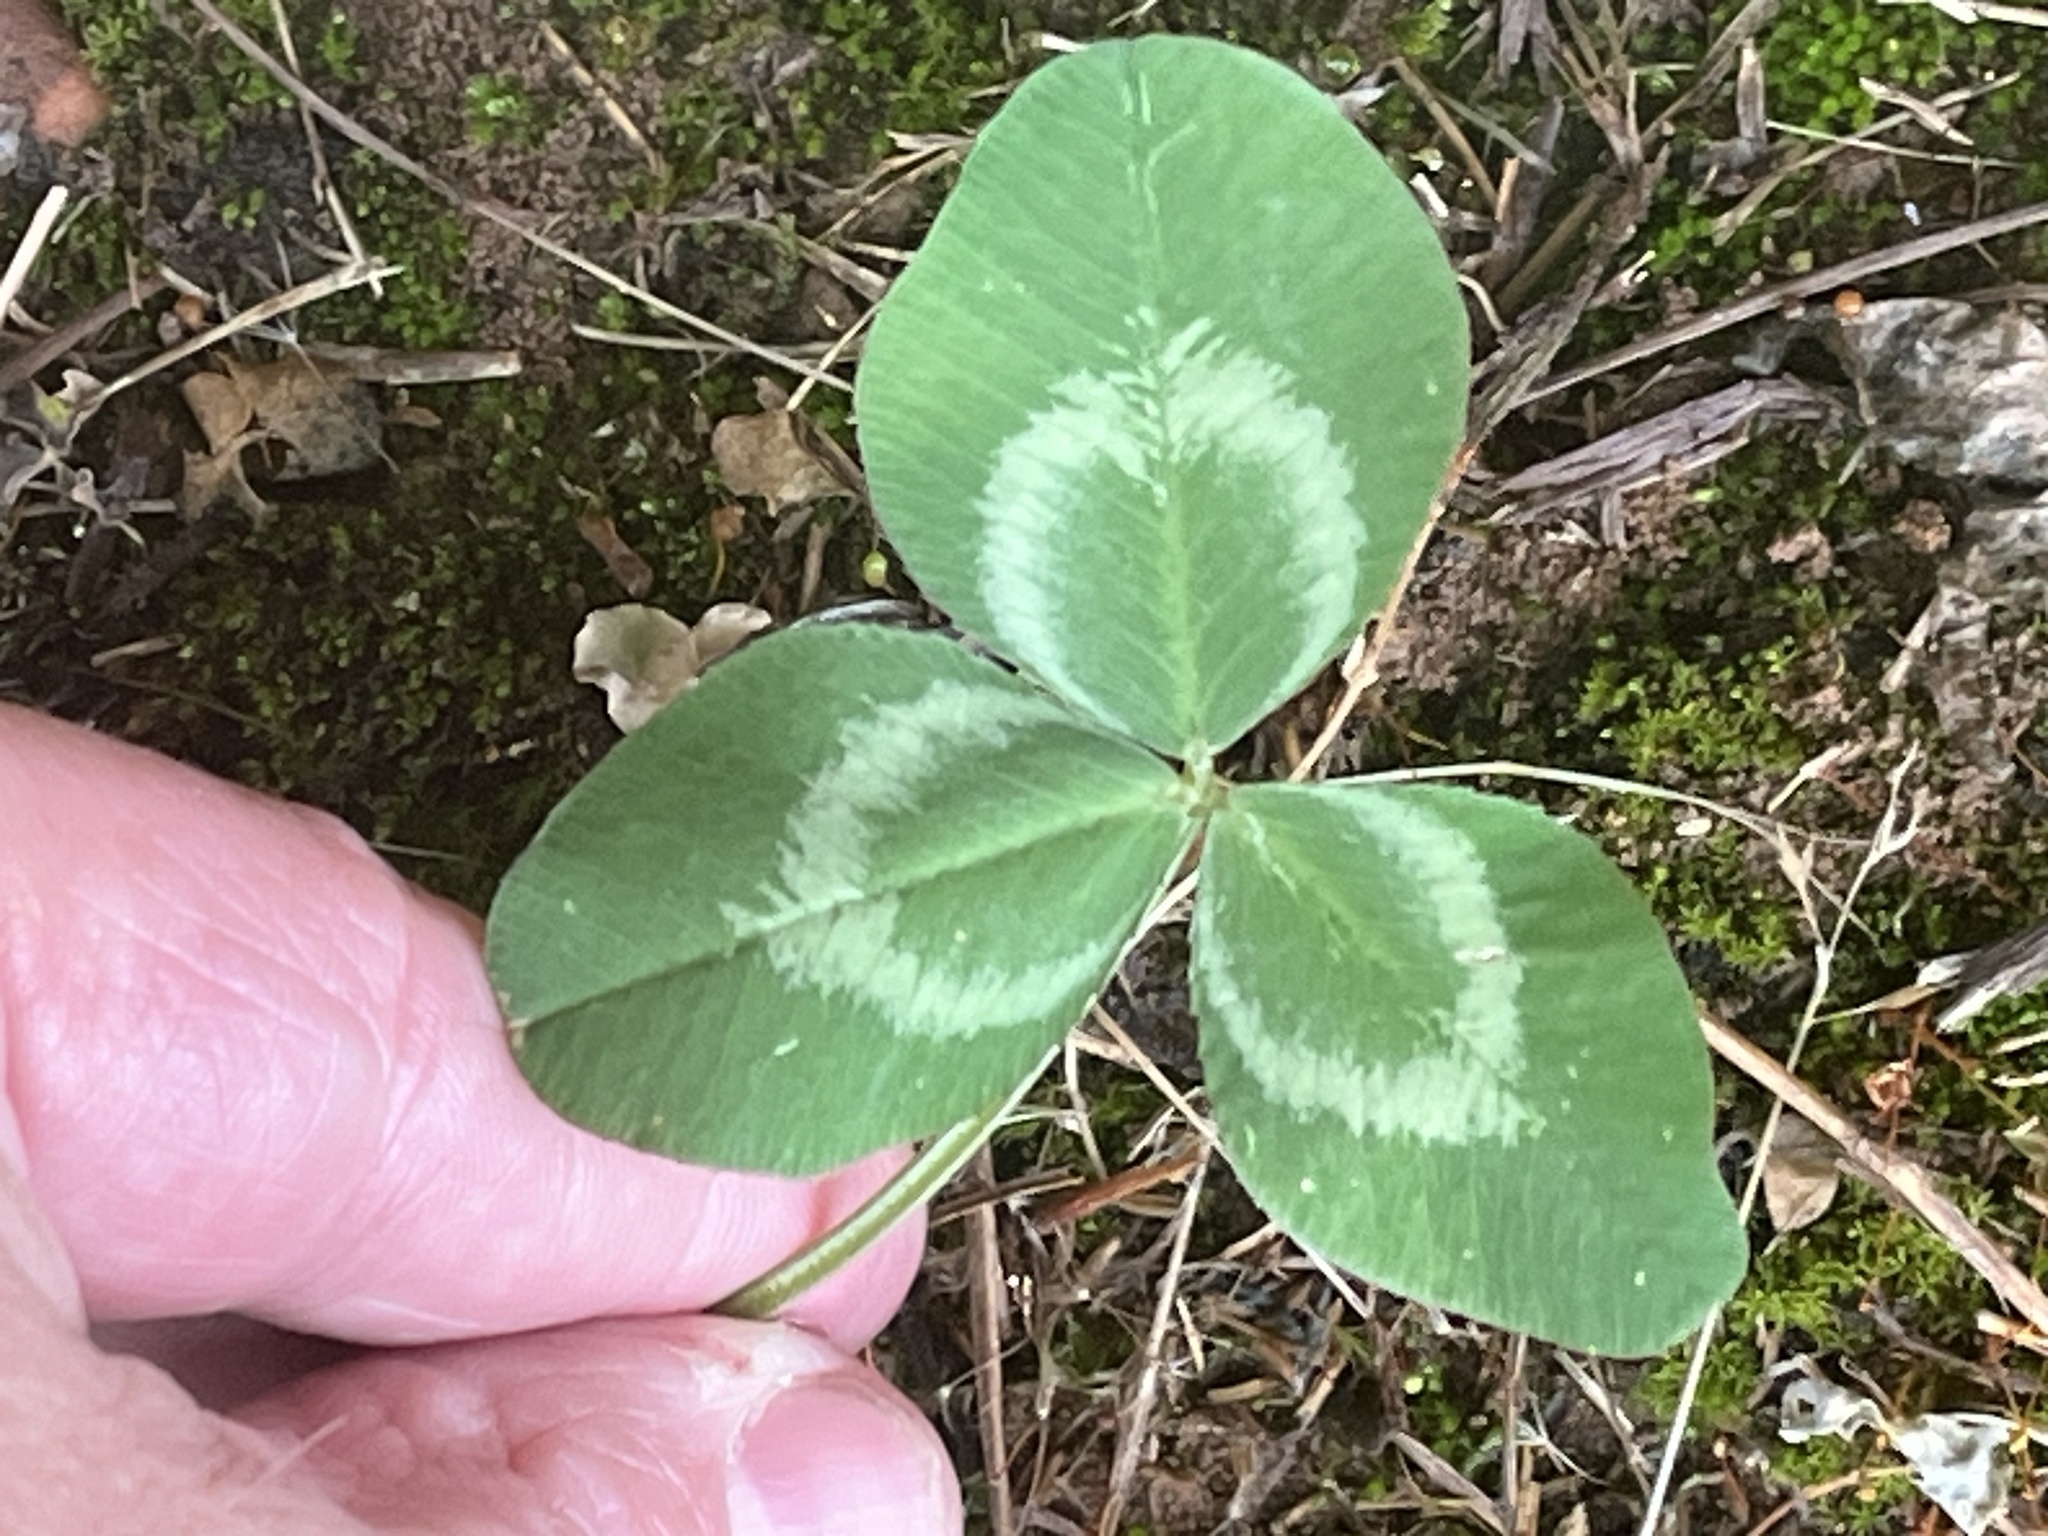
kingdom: Plantae
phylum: Tracheophyta
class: Magnoliopsida
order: Fabales
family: Fabaceae
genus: Trifolium
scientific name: Trifolium repens
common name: White clover
